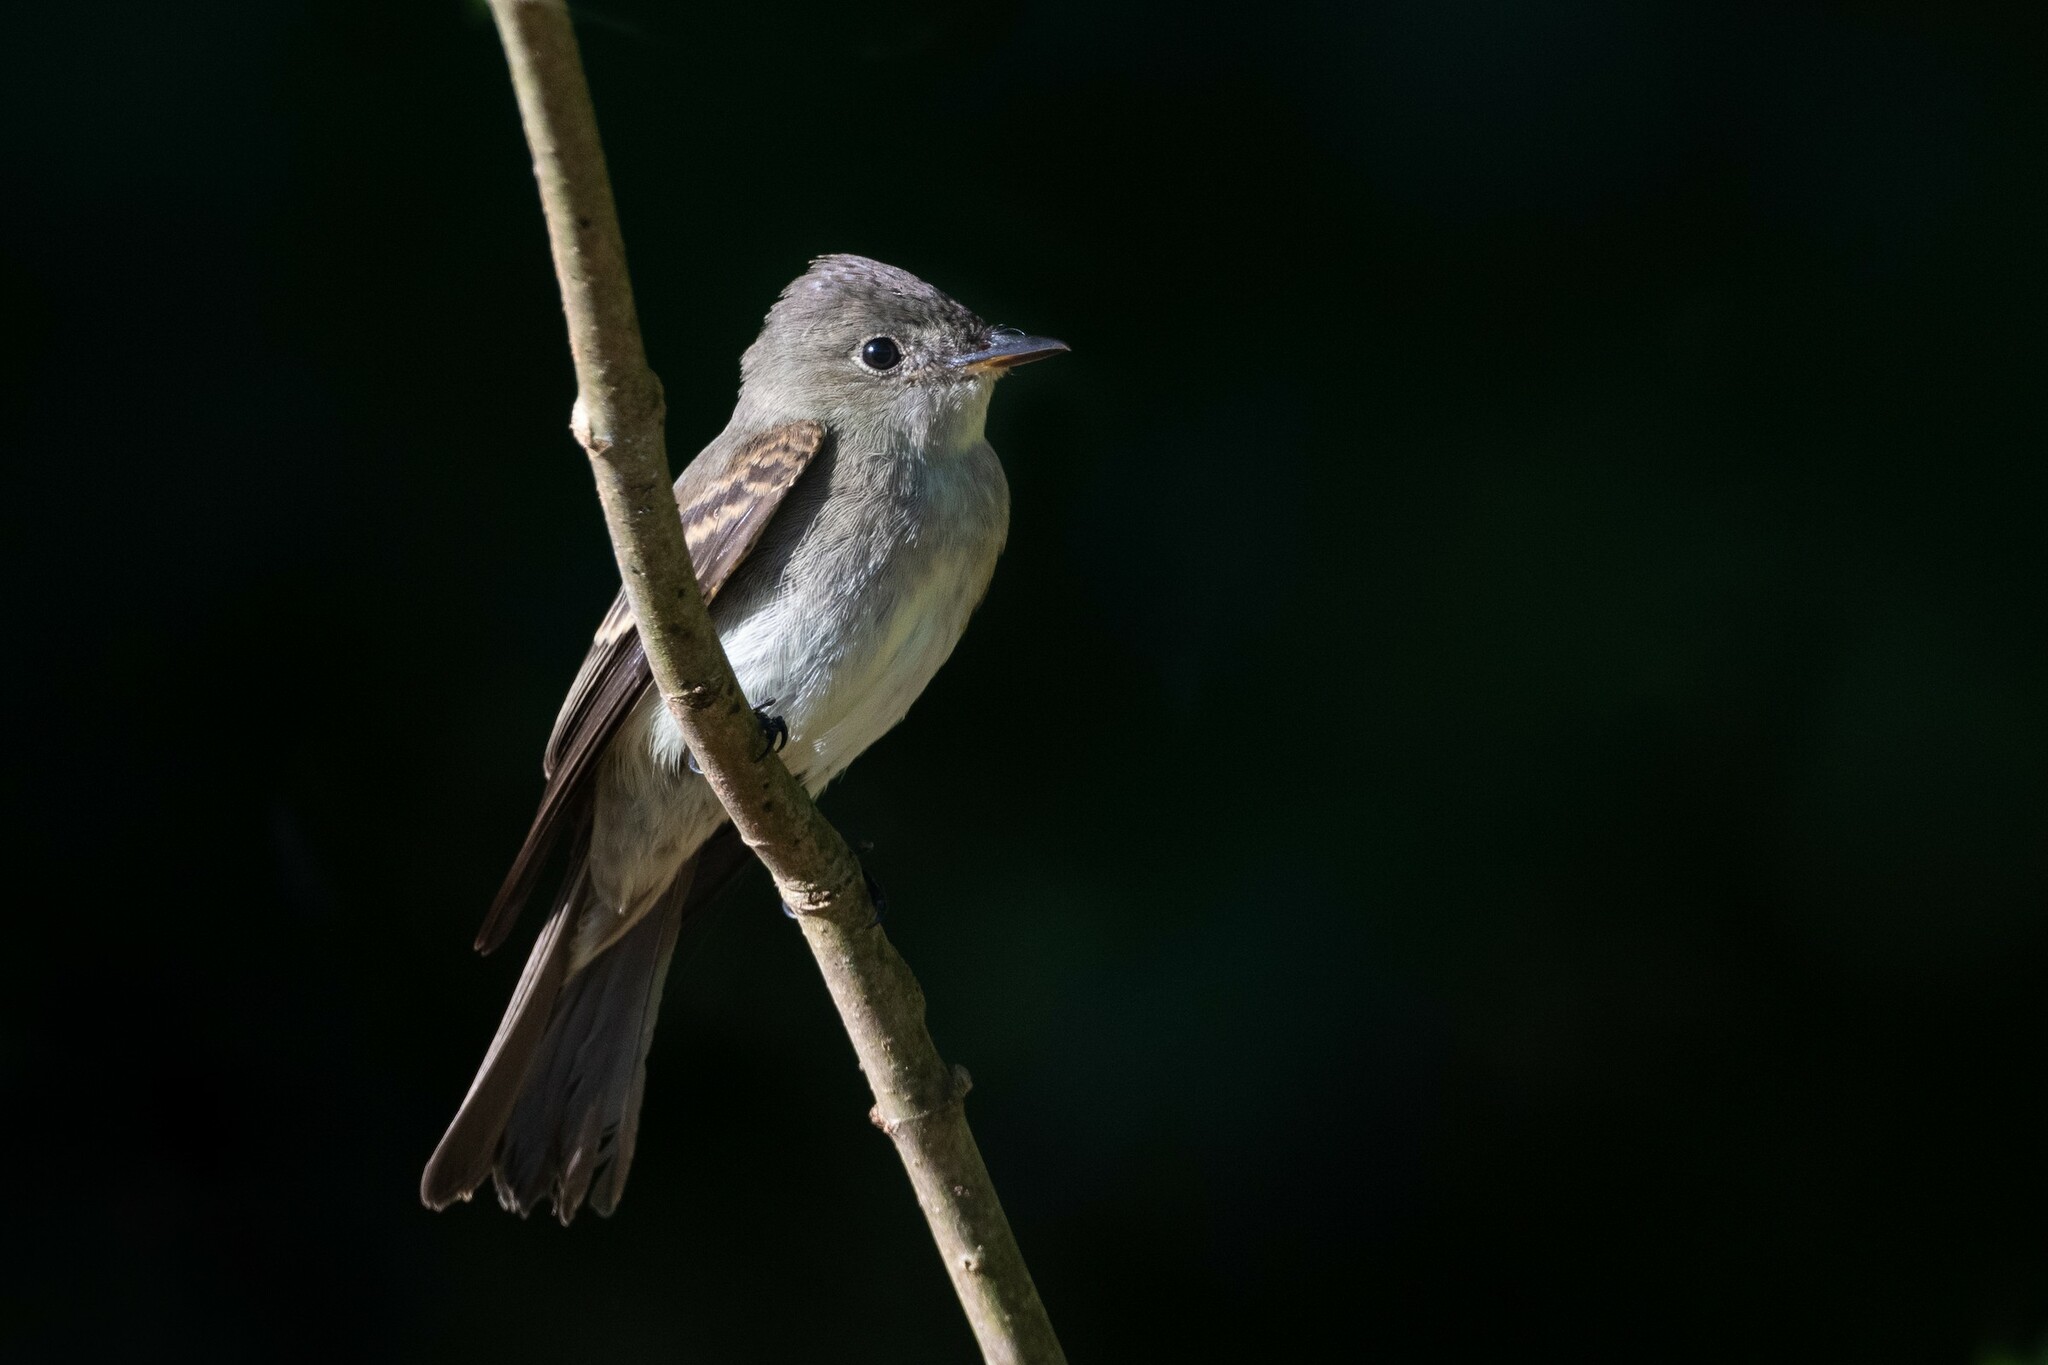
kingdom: Animalia
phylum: Chordata
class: Aves
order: Passeriformes
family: Tyrannidae
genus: Contopus
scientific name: Contopus virens
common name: Eastern wood-pewee
